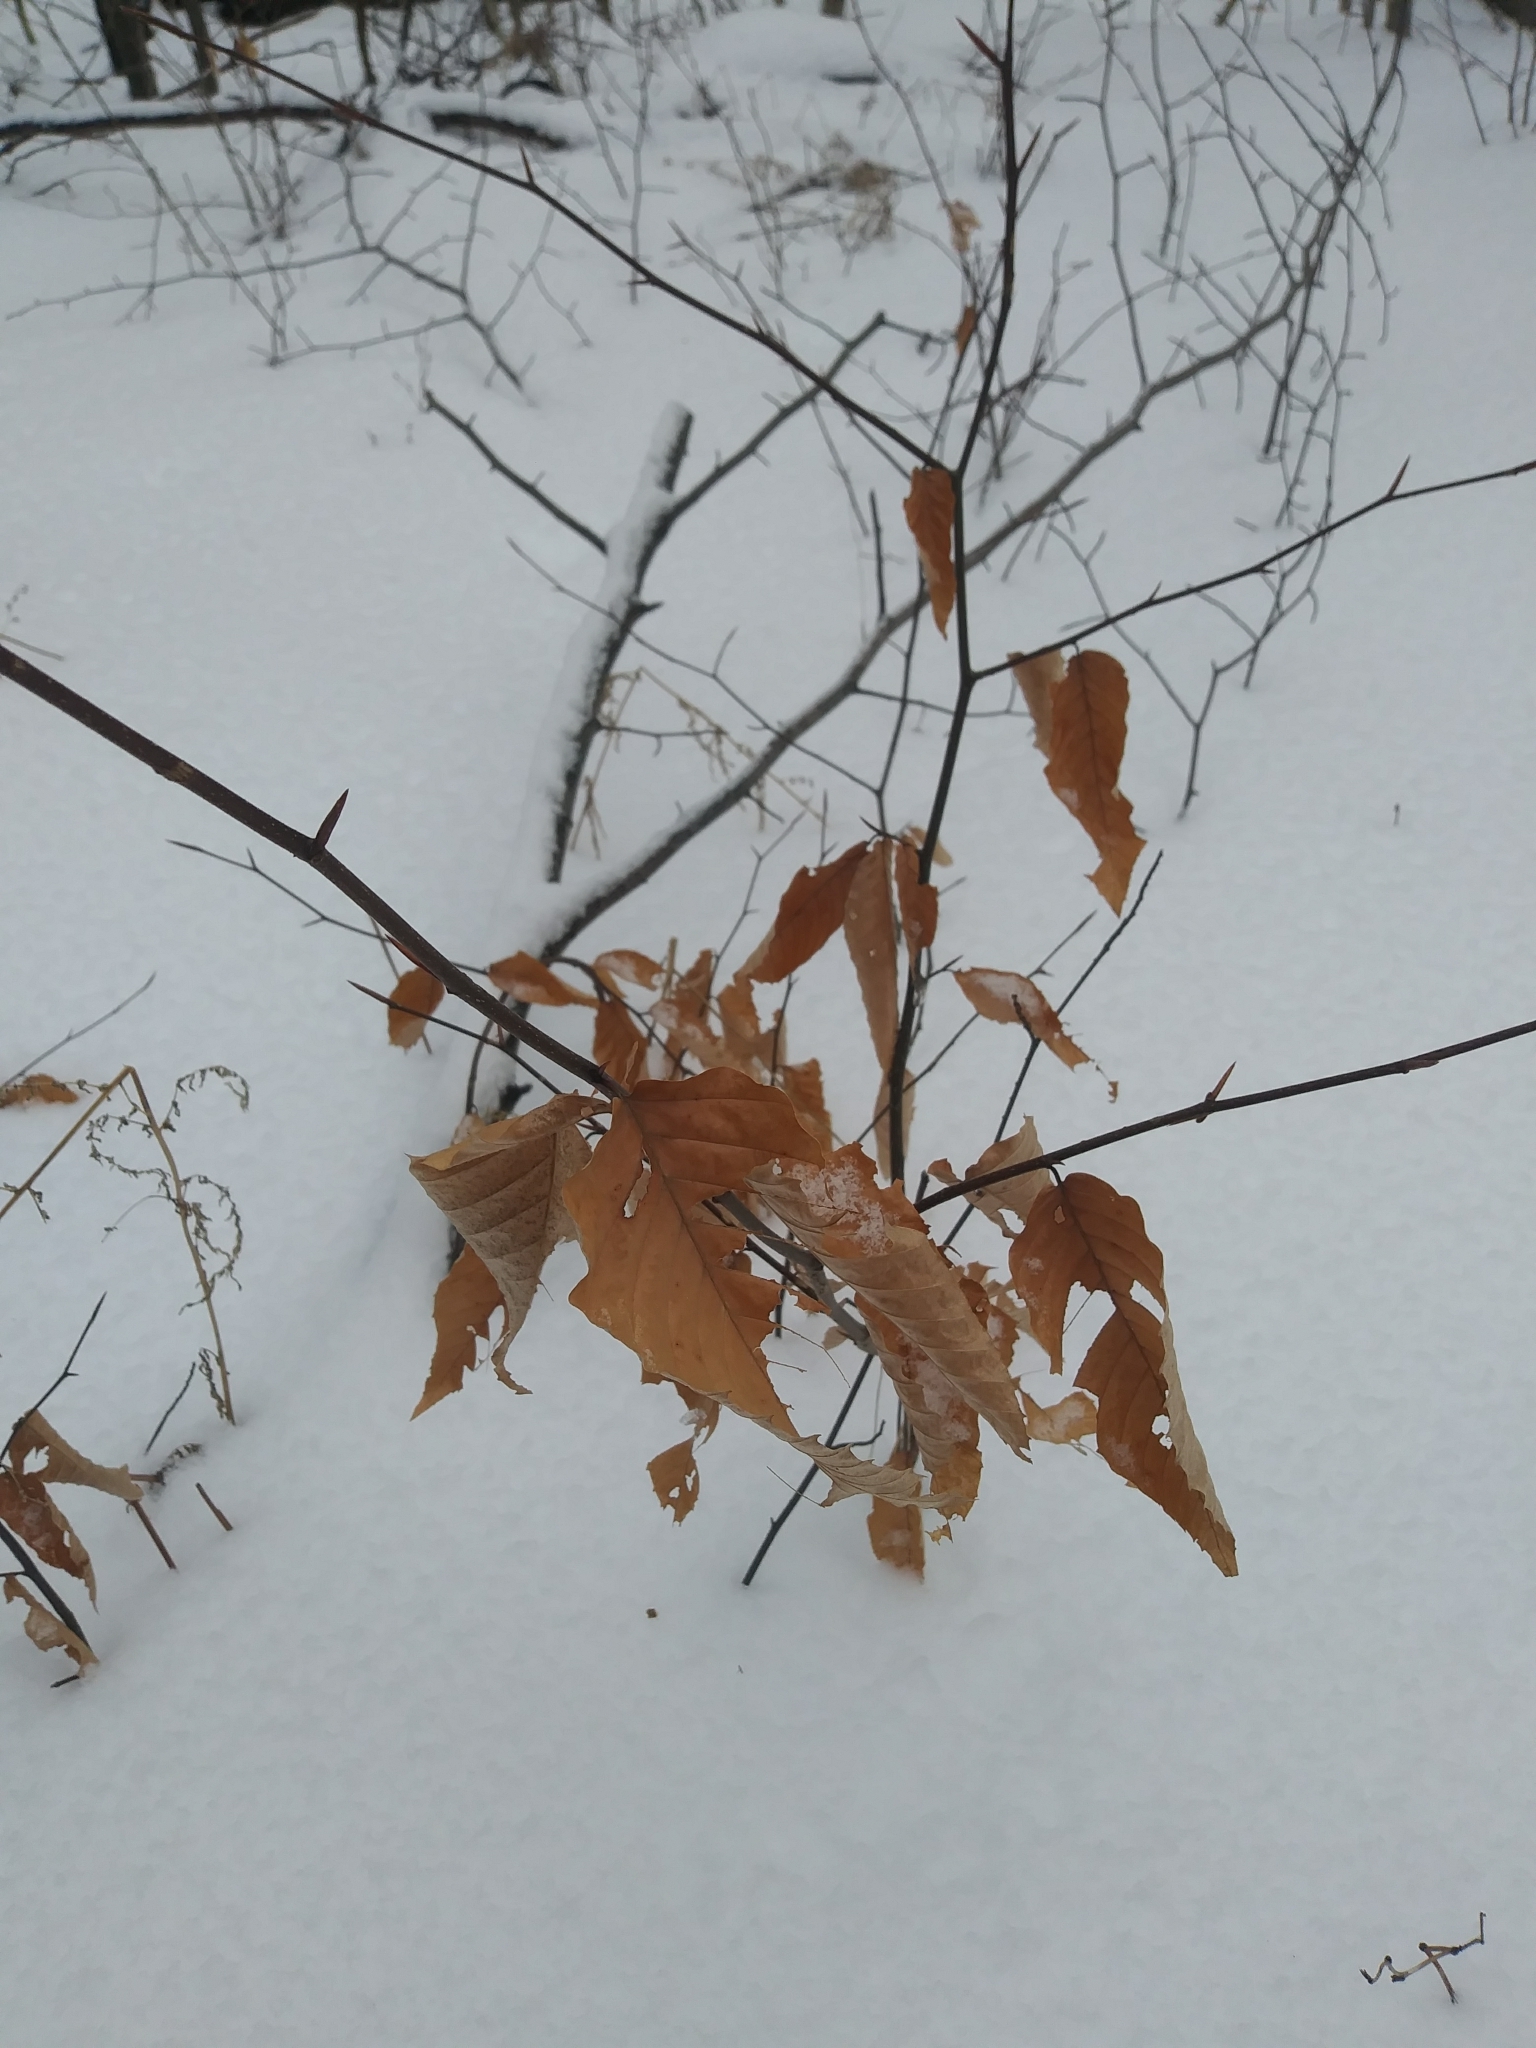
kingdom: Plantae
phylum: Tracheophyta
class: Magnoliopsida
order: Fagales
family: Fagaceae
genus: Fagus
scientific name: Fagus grandifolia
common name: American beech
